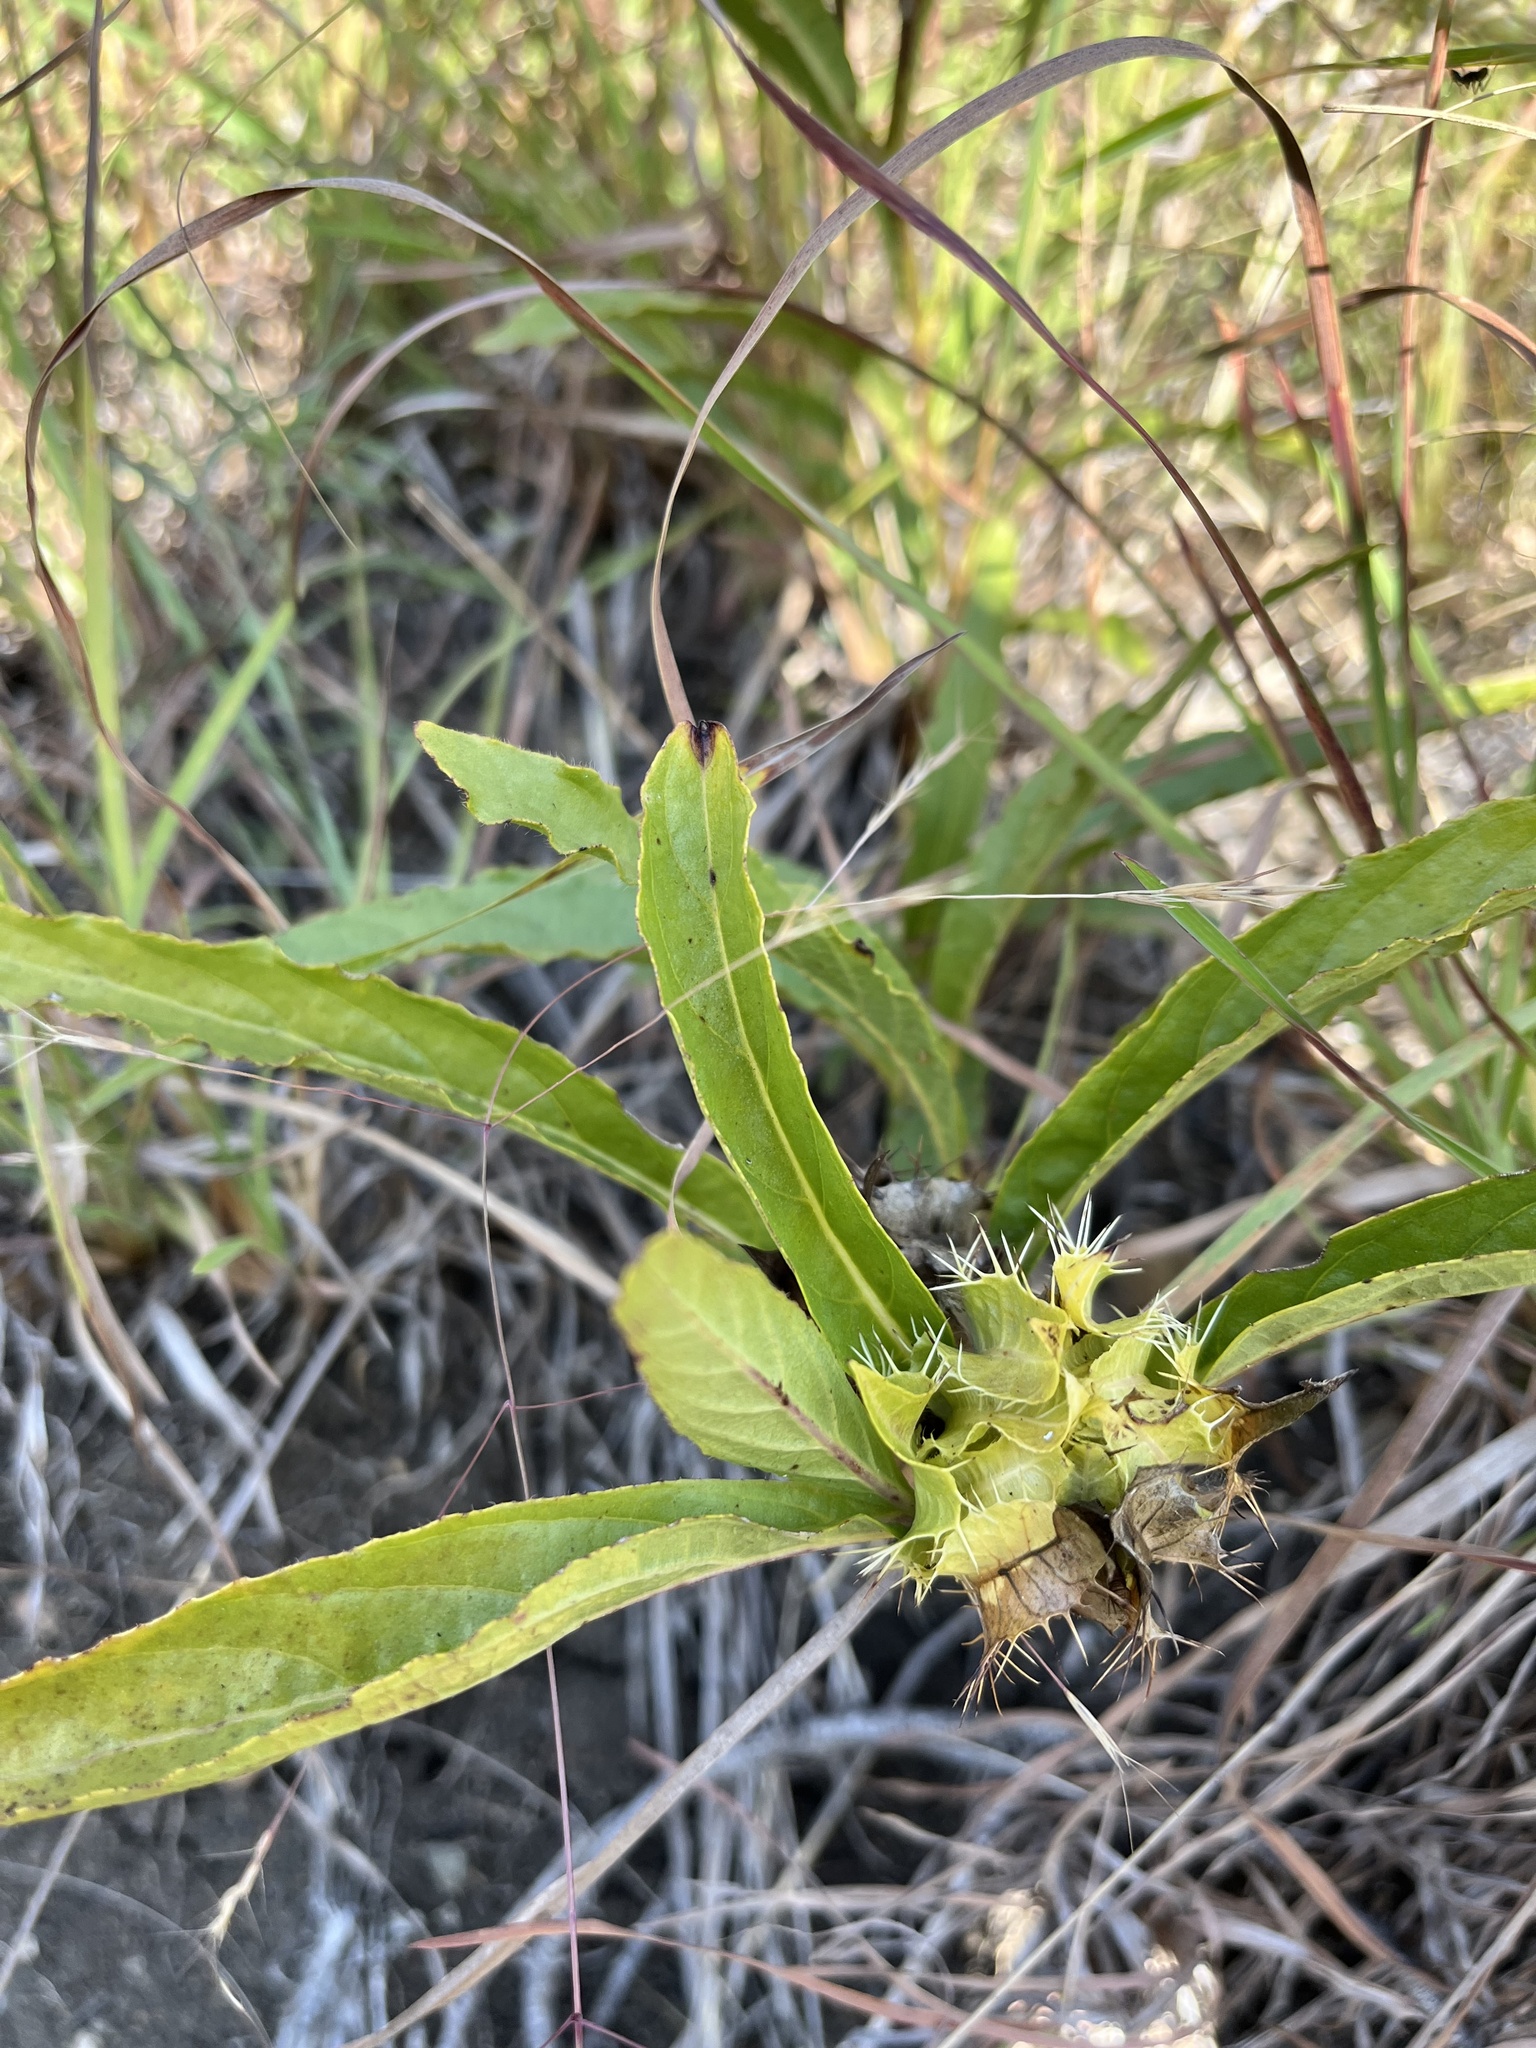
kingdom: Plantae
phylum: Tracheophyta
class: Magnoliopsida
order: Lamiales
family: Acanthaceae
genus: Crabbea
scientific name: Crabbea cirsioides
